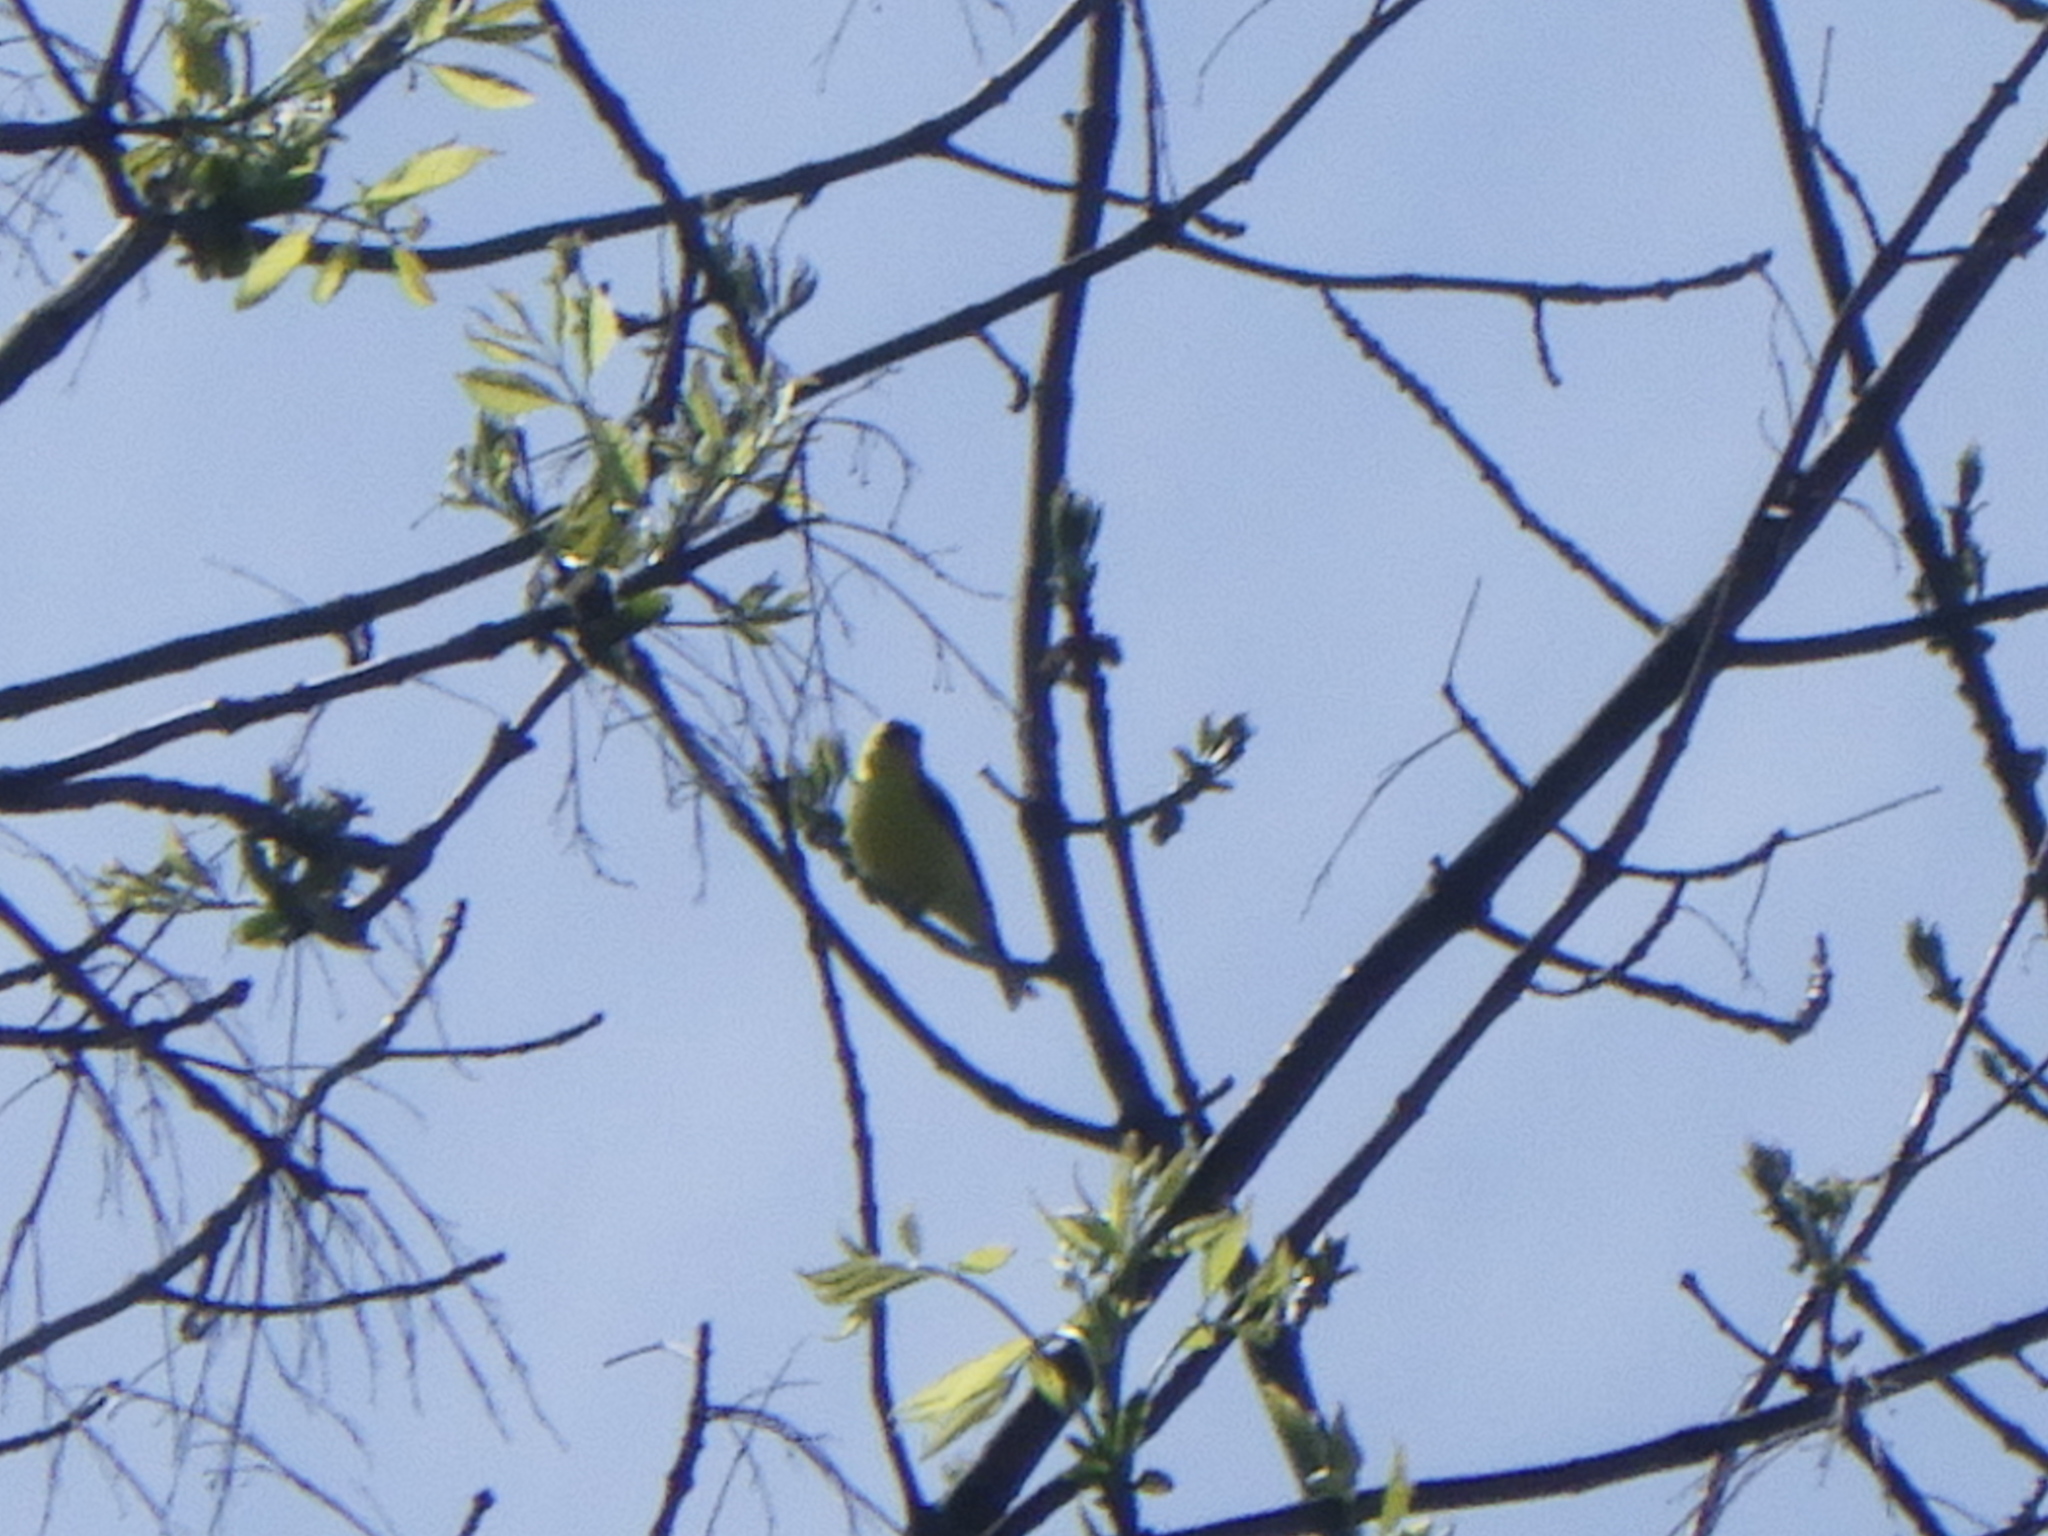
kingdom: Animalia
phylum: Chordata
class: Aves
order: Passeriformes
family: Fringillidae
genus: Spinus
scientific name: Spinus tristis
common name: American goldfinch
